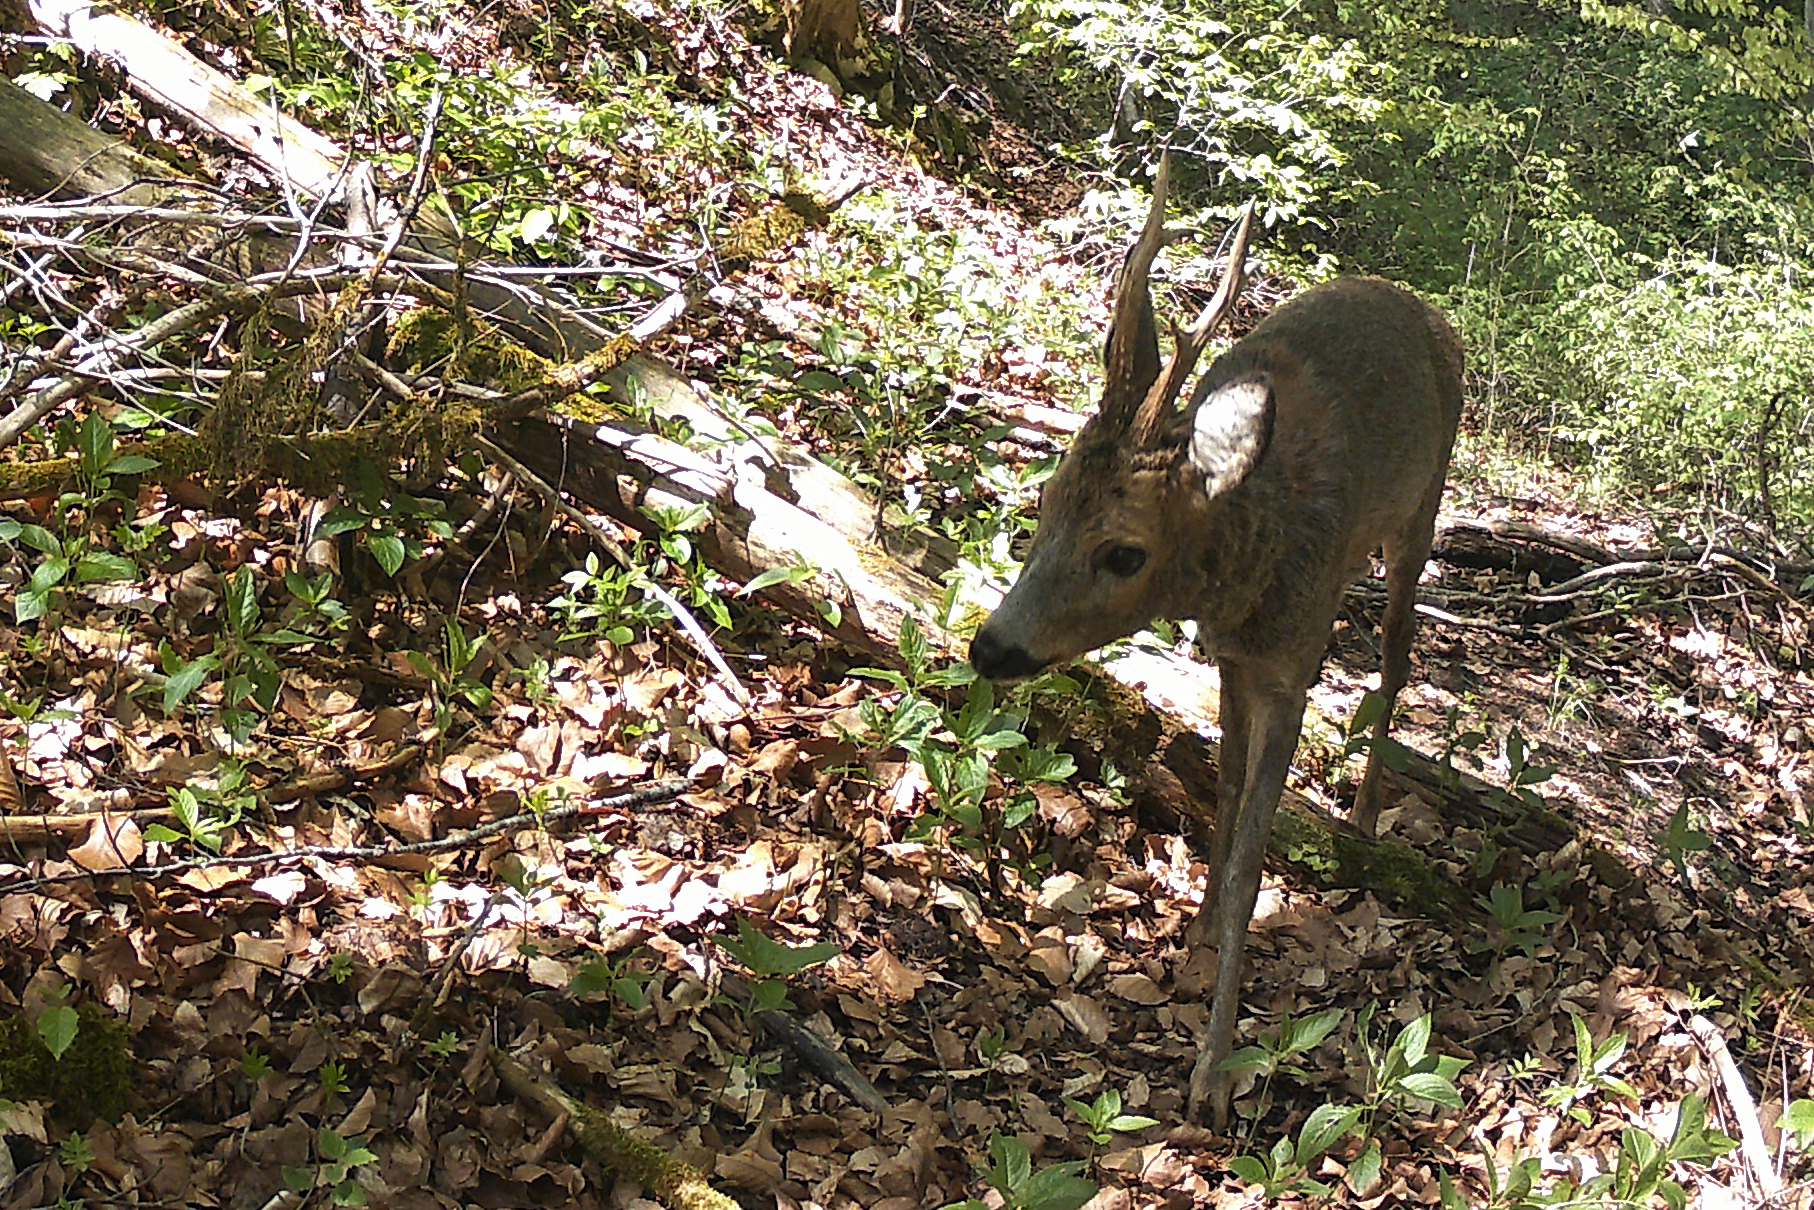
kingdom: Animalia
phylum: Chordata
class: Mammalia
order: Artiodactyla
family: Cervidae
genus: Capreolus
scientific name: Capreolus capreolus
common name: Western roe deer
